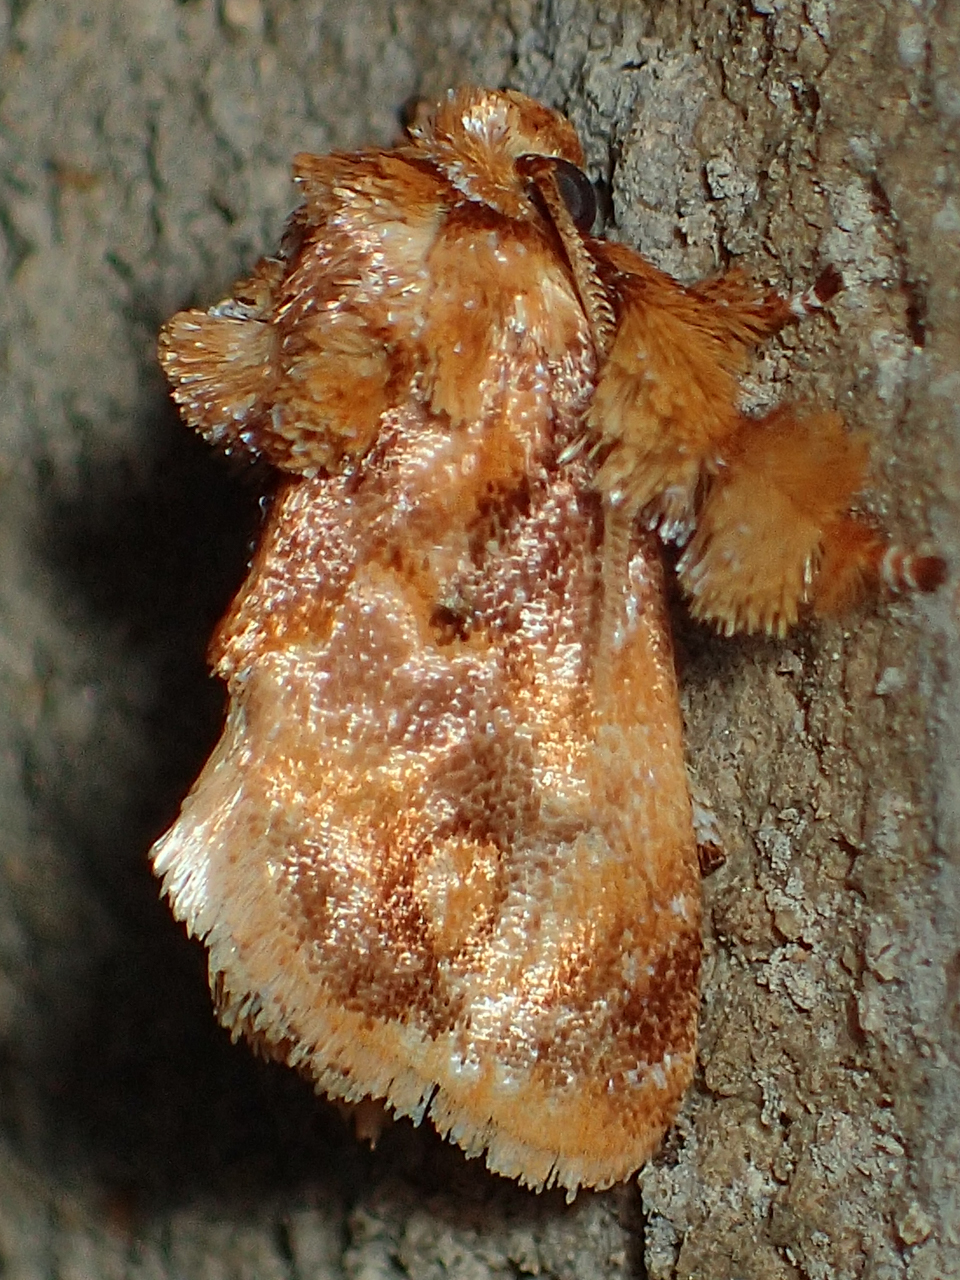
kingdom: Animalia
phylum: Arthropoda
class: Insecta
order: Lepidoptera
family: Limacodidae
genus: Isochaetes
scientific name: Isochaetes beutenmuelleri
